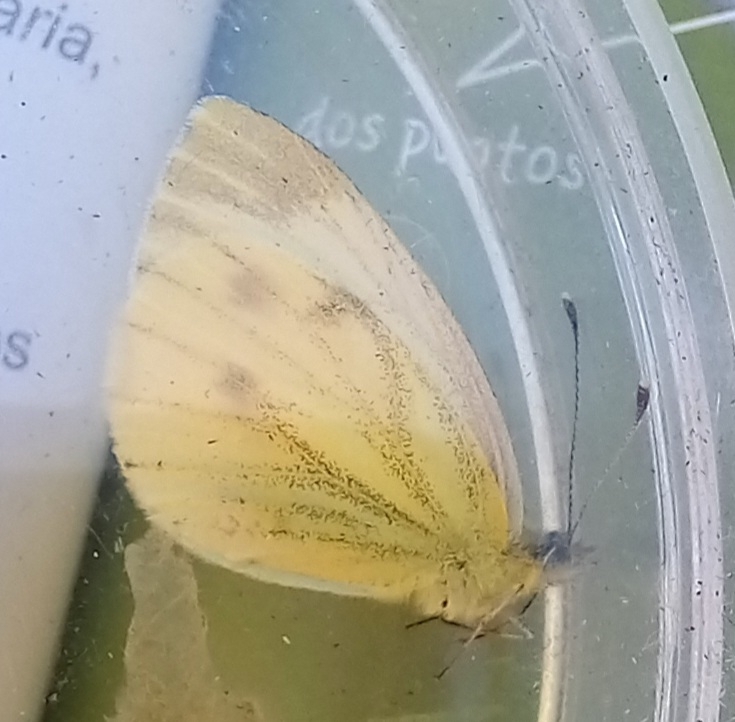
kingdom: Animalia
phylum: Arthropoda
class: Insecta
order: Lepidoptera
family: Pieridae
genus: Pieris
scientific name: Pieris napi
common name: Green-veined white
